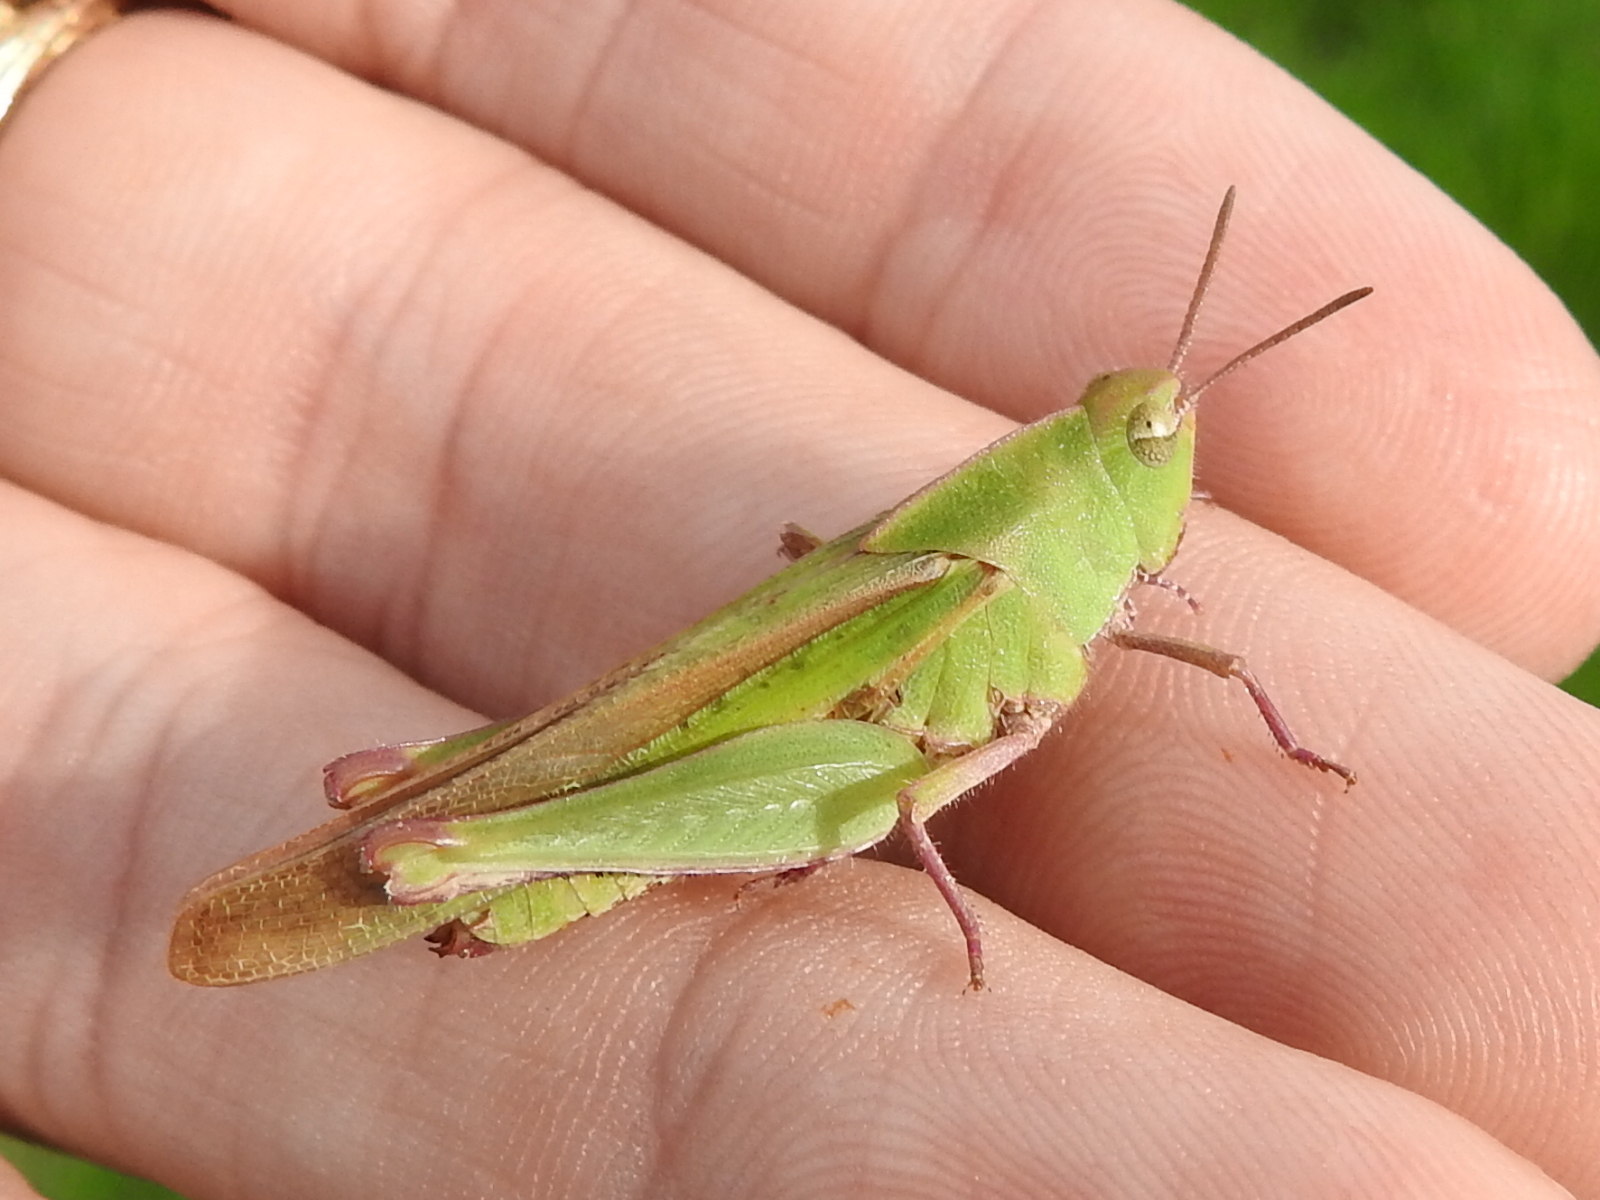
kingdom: Animalia
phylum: Arthropoda
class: Insecta
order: Orthoptera
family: Acrididae
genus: Chortophaga
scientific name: Chortophaga viridifasciata
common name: Green-striped grasshopper
